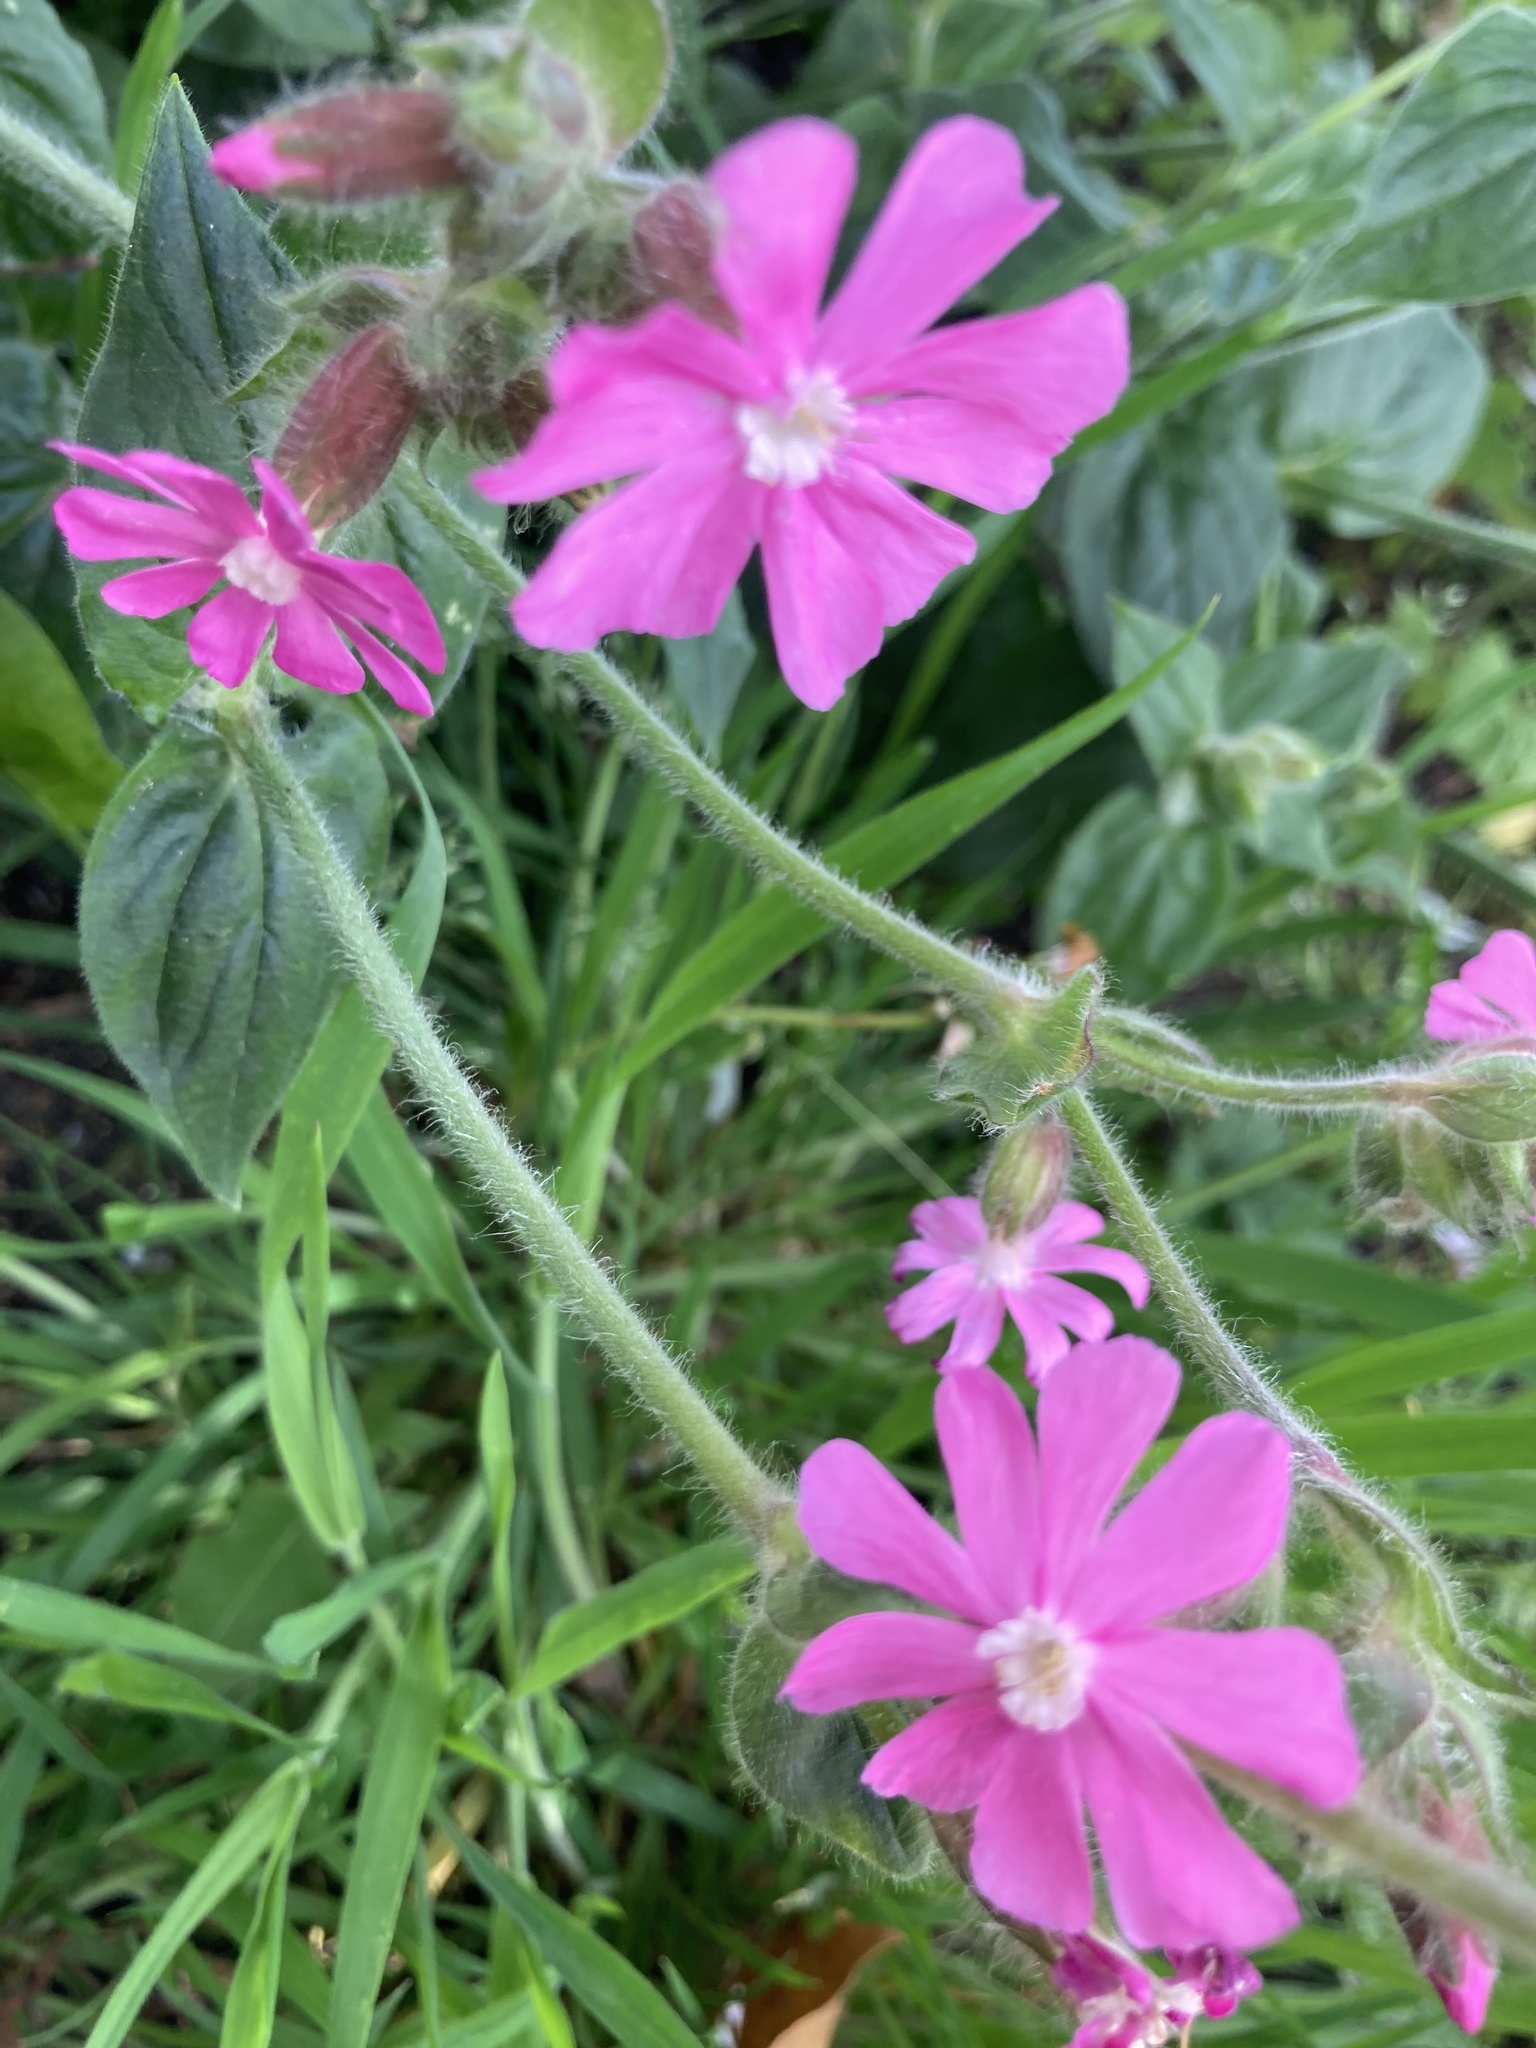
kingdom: Plantae
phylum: Tracheophyta
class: Magnoliopsida
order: Caryophyllales
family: Caryophyllaceae
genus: Silene
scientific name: Silene dioica
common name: Red campion
